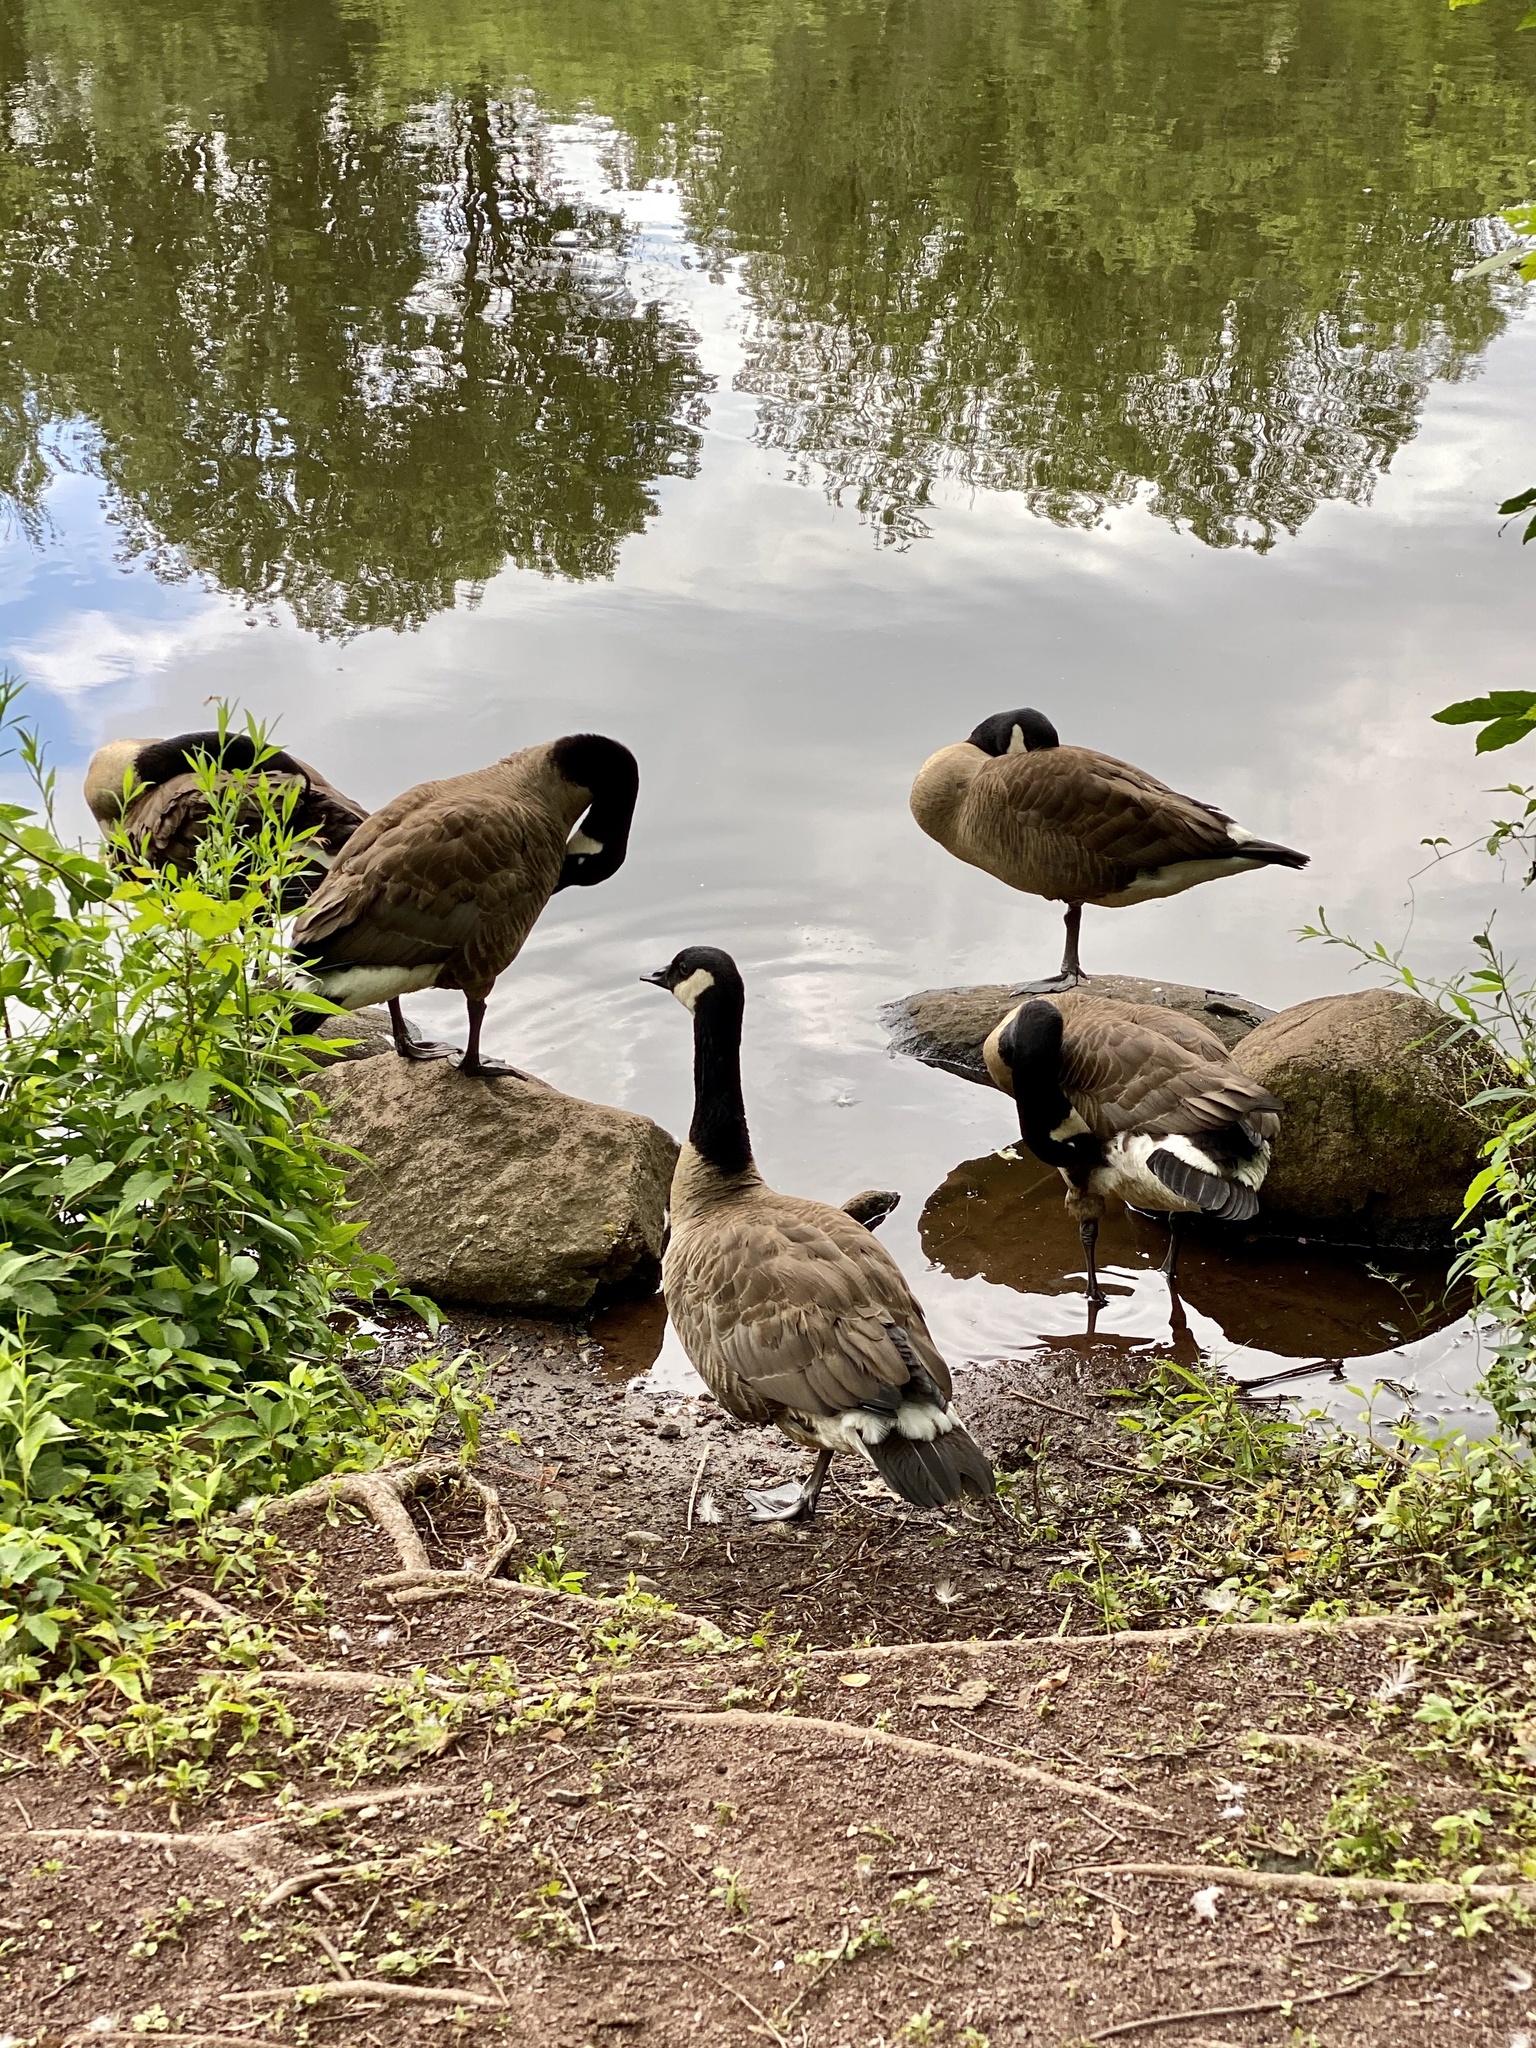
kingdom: Animalia
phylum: Chordata
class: Aves
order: Anseriformes
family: Anatidae
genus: Branta
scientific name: Branta canadensis
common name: Canada goose
